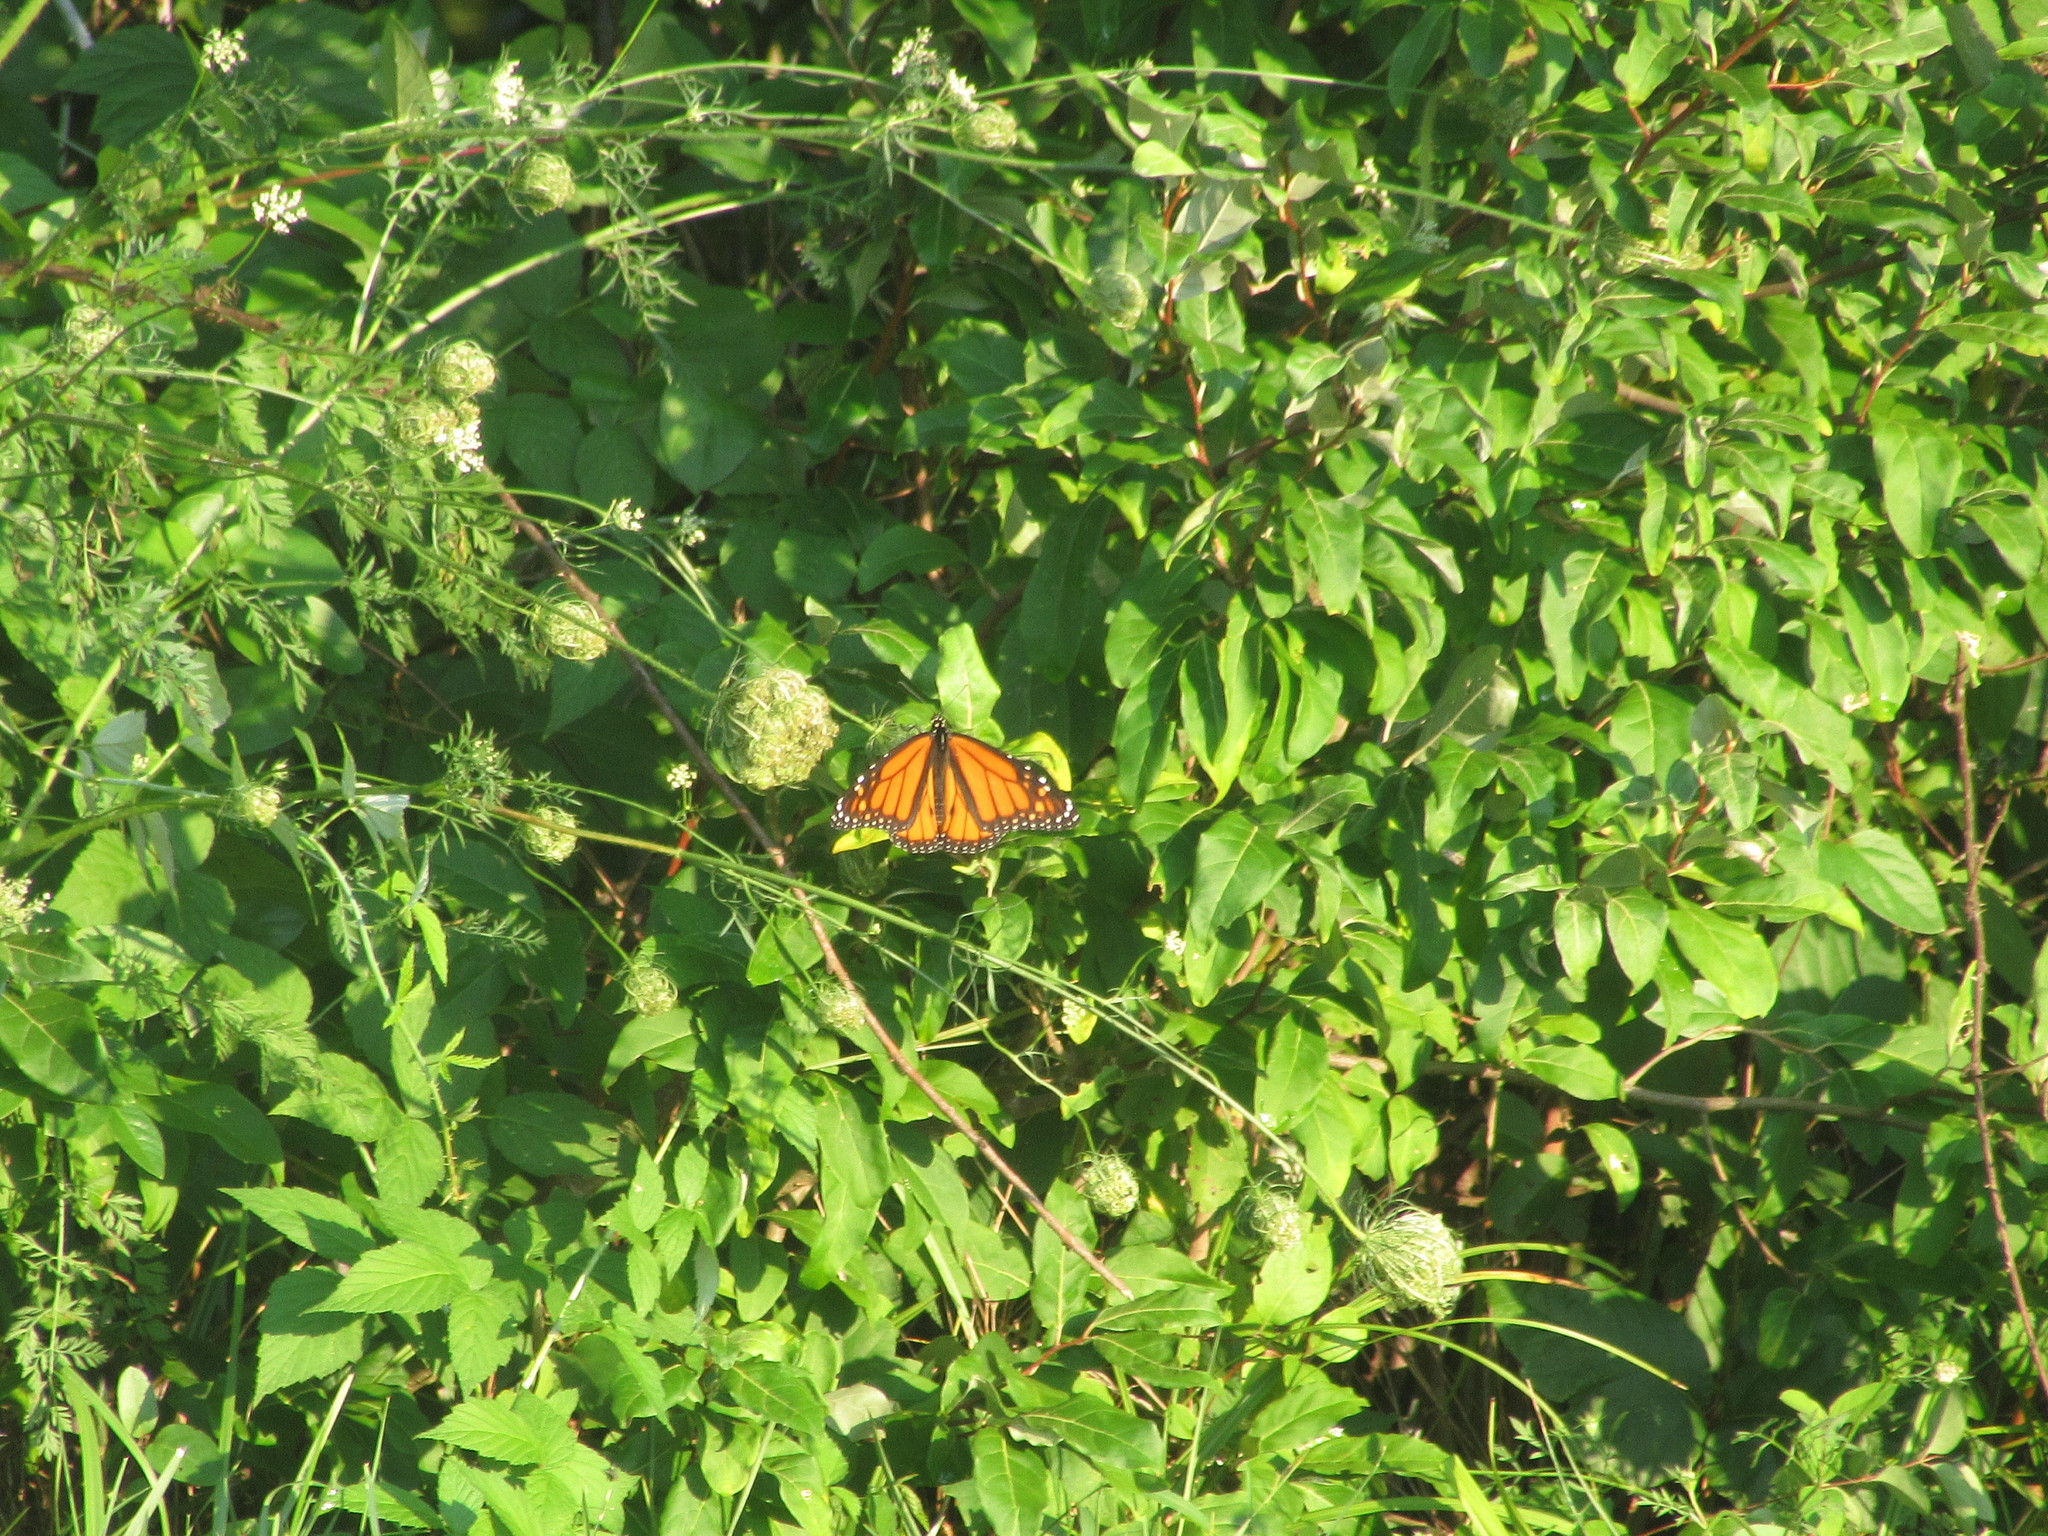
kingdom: Animalia
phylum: Arthropoda
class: Insecta
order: Lepidoptera
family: Nymphalidae
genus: Danaus
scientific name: Danaus plexippus
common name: Monarch
